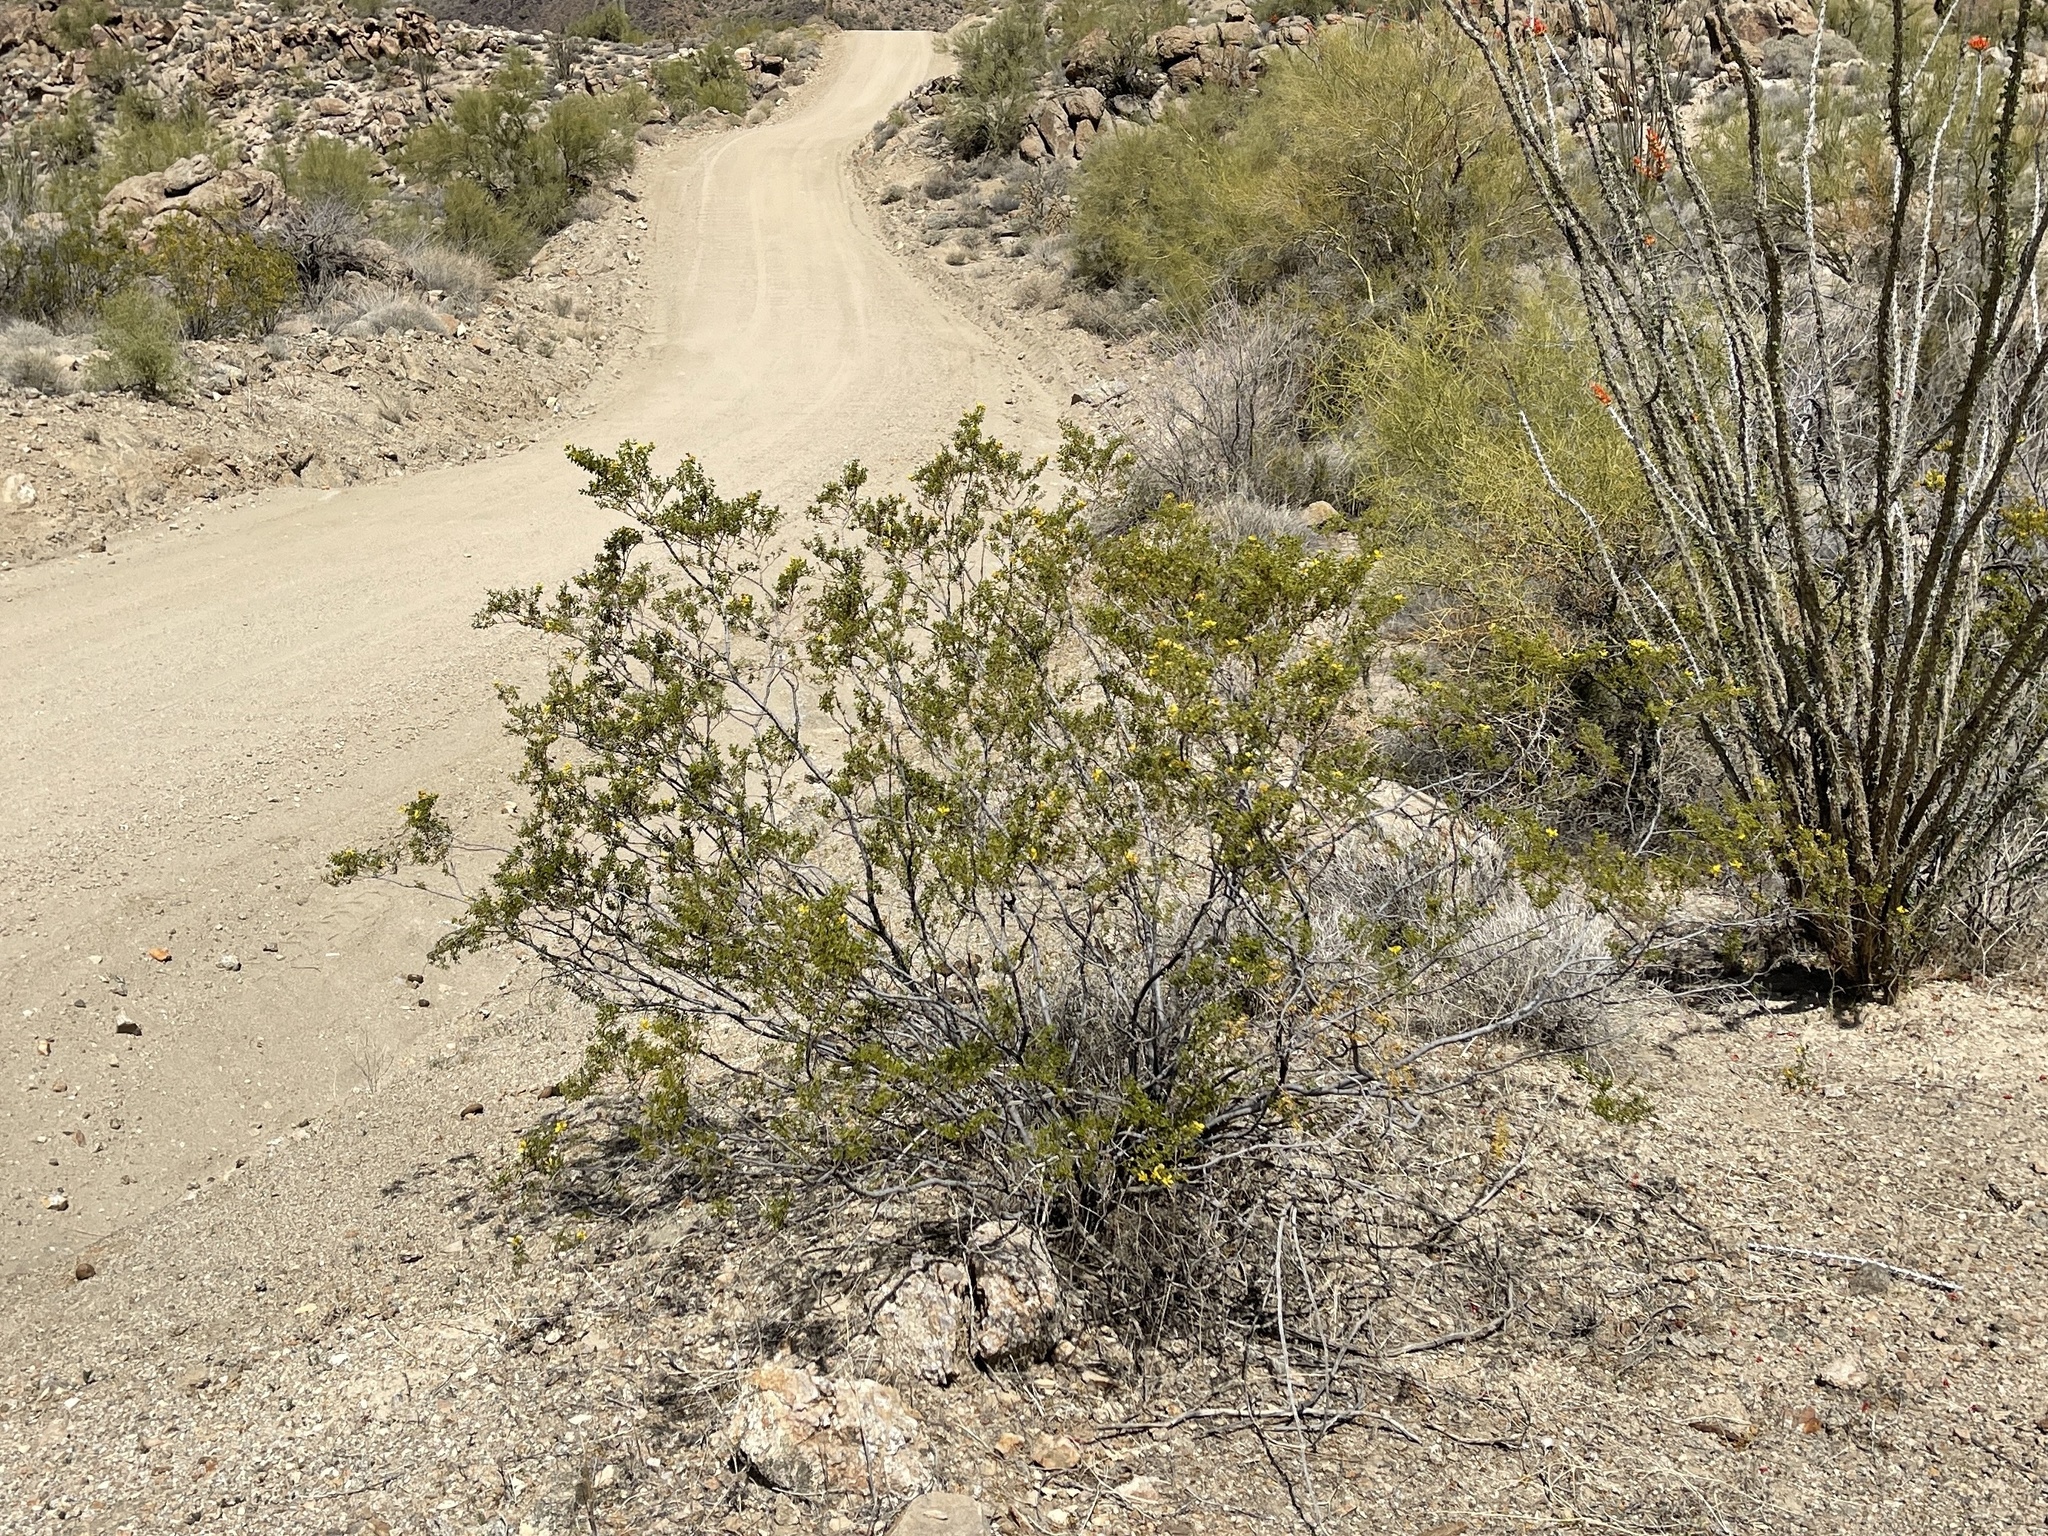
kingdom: Plantae
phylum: Tracheophyta
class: Magnoliopsida
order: Zygophyllales
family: Zygophyllaceae
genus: Larrea
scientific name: Larrea tridentata
